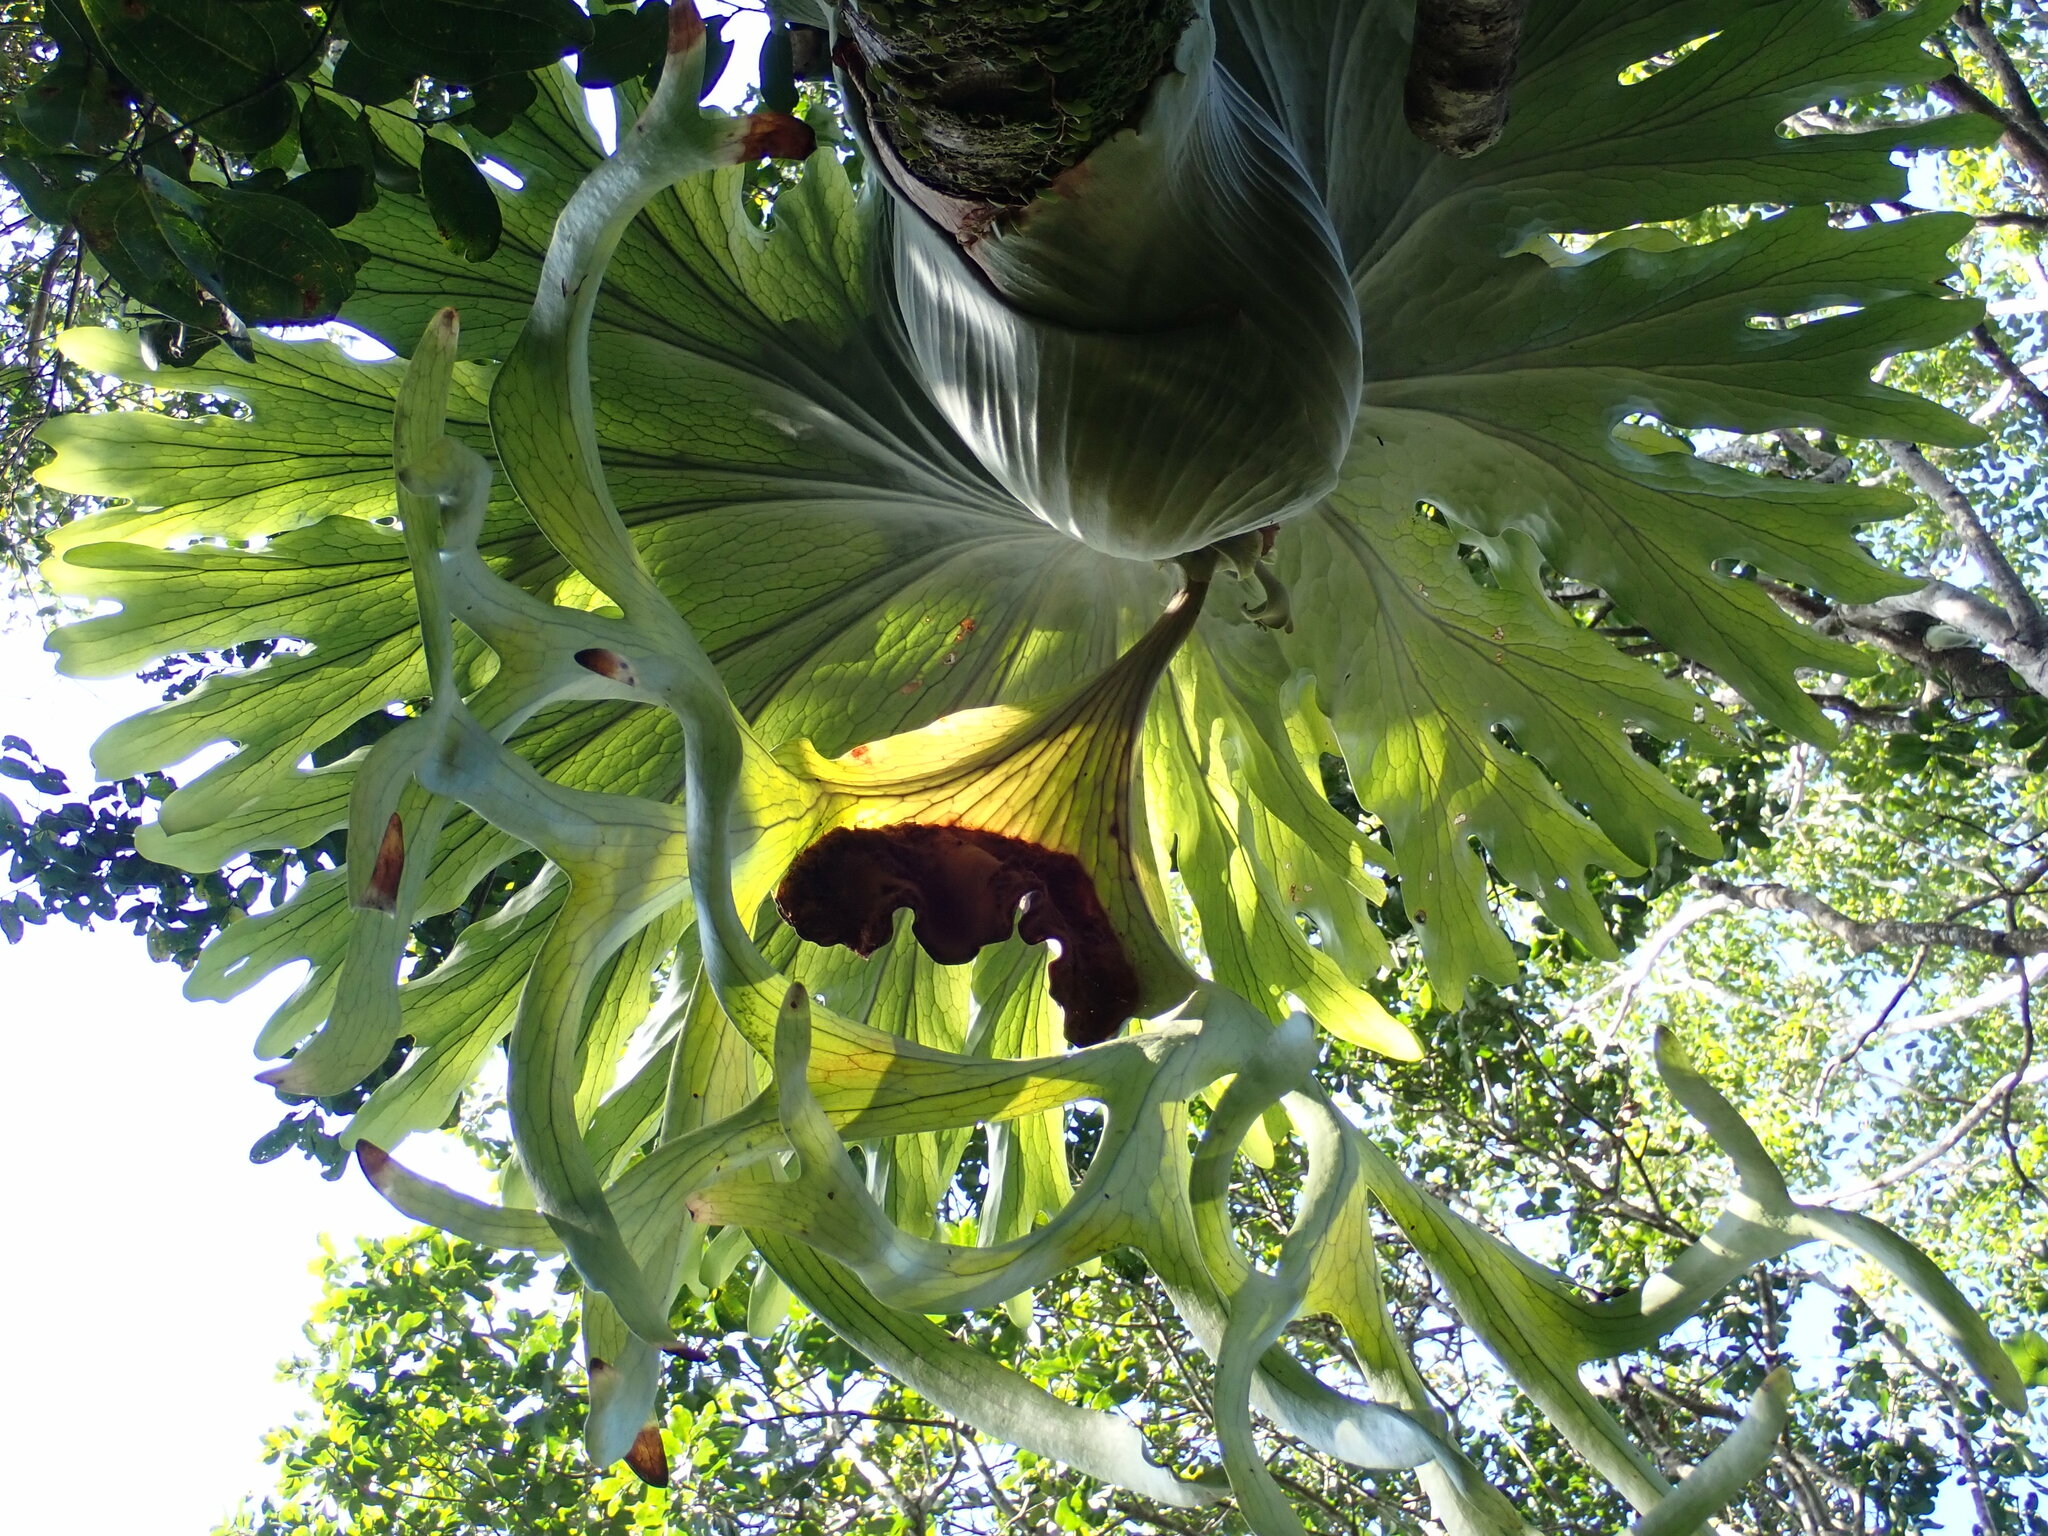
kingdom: Plantae
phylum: Tracheophyta
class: Polypodiopsida
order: Polypodiales
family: Polypodiaceae
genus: Platycerium
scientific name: Platycerium superbum
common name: Staghorn fern
